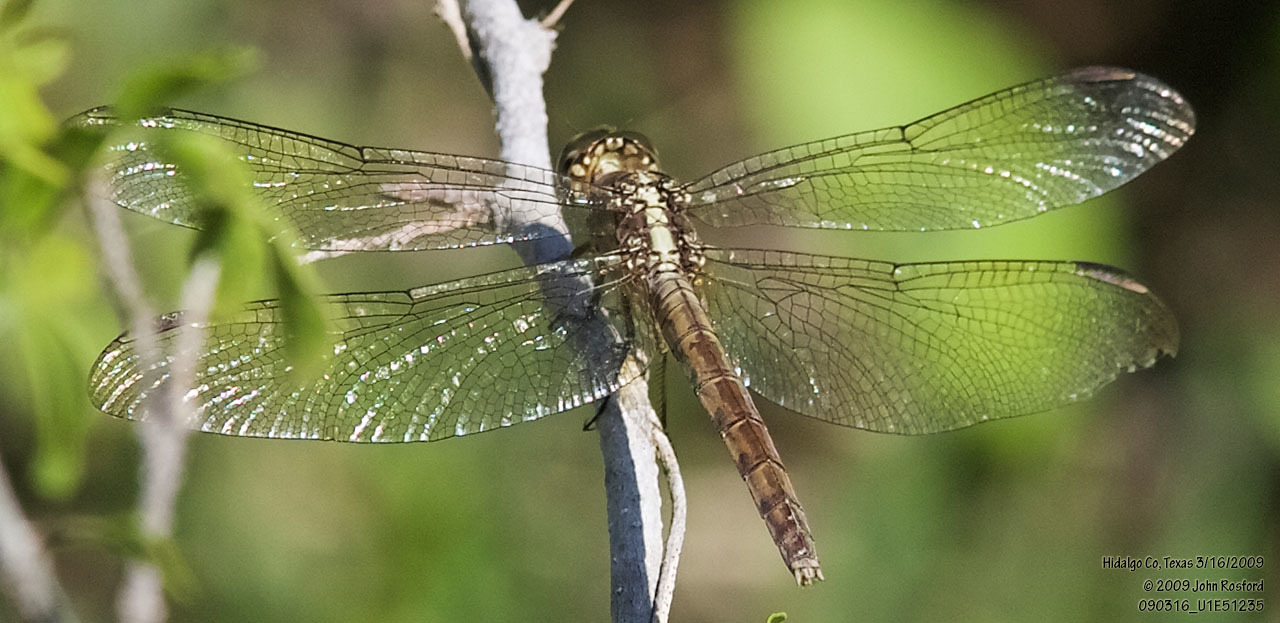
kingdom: Animalia
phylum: Arthropoda
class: Insecta
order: Odonata
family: Libellulidae
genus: Erythrodiplax
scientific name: Erythrodiplax umbrata
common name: Band-winged dragonlet
